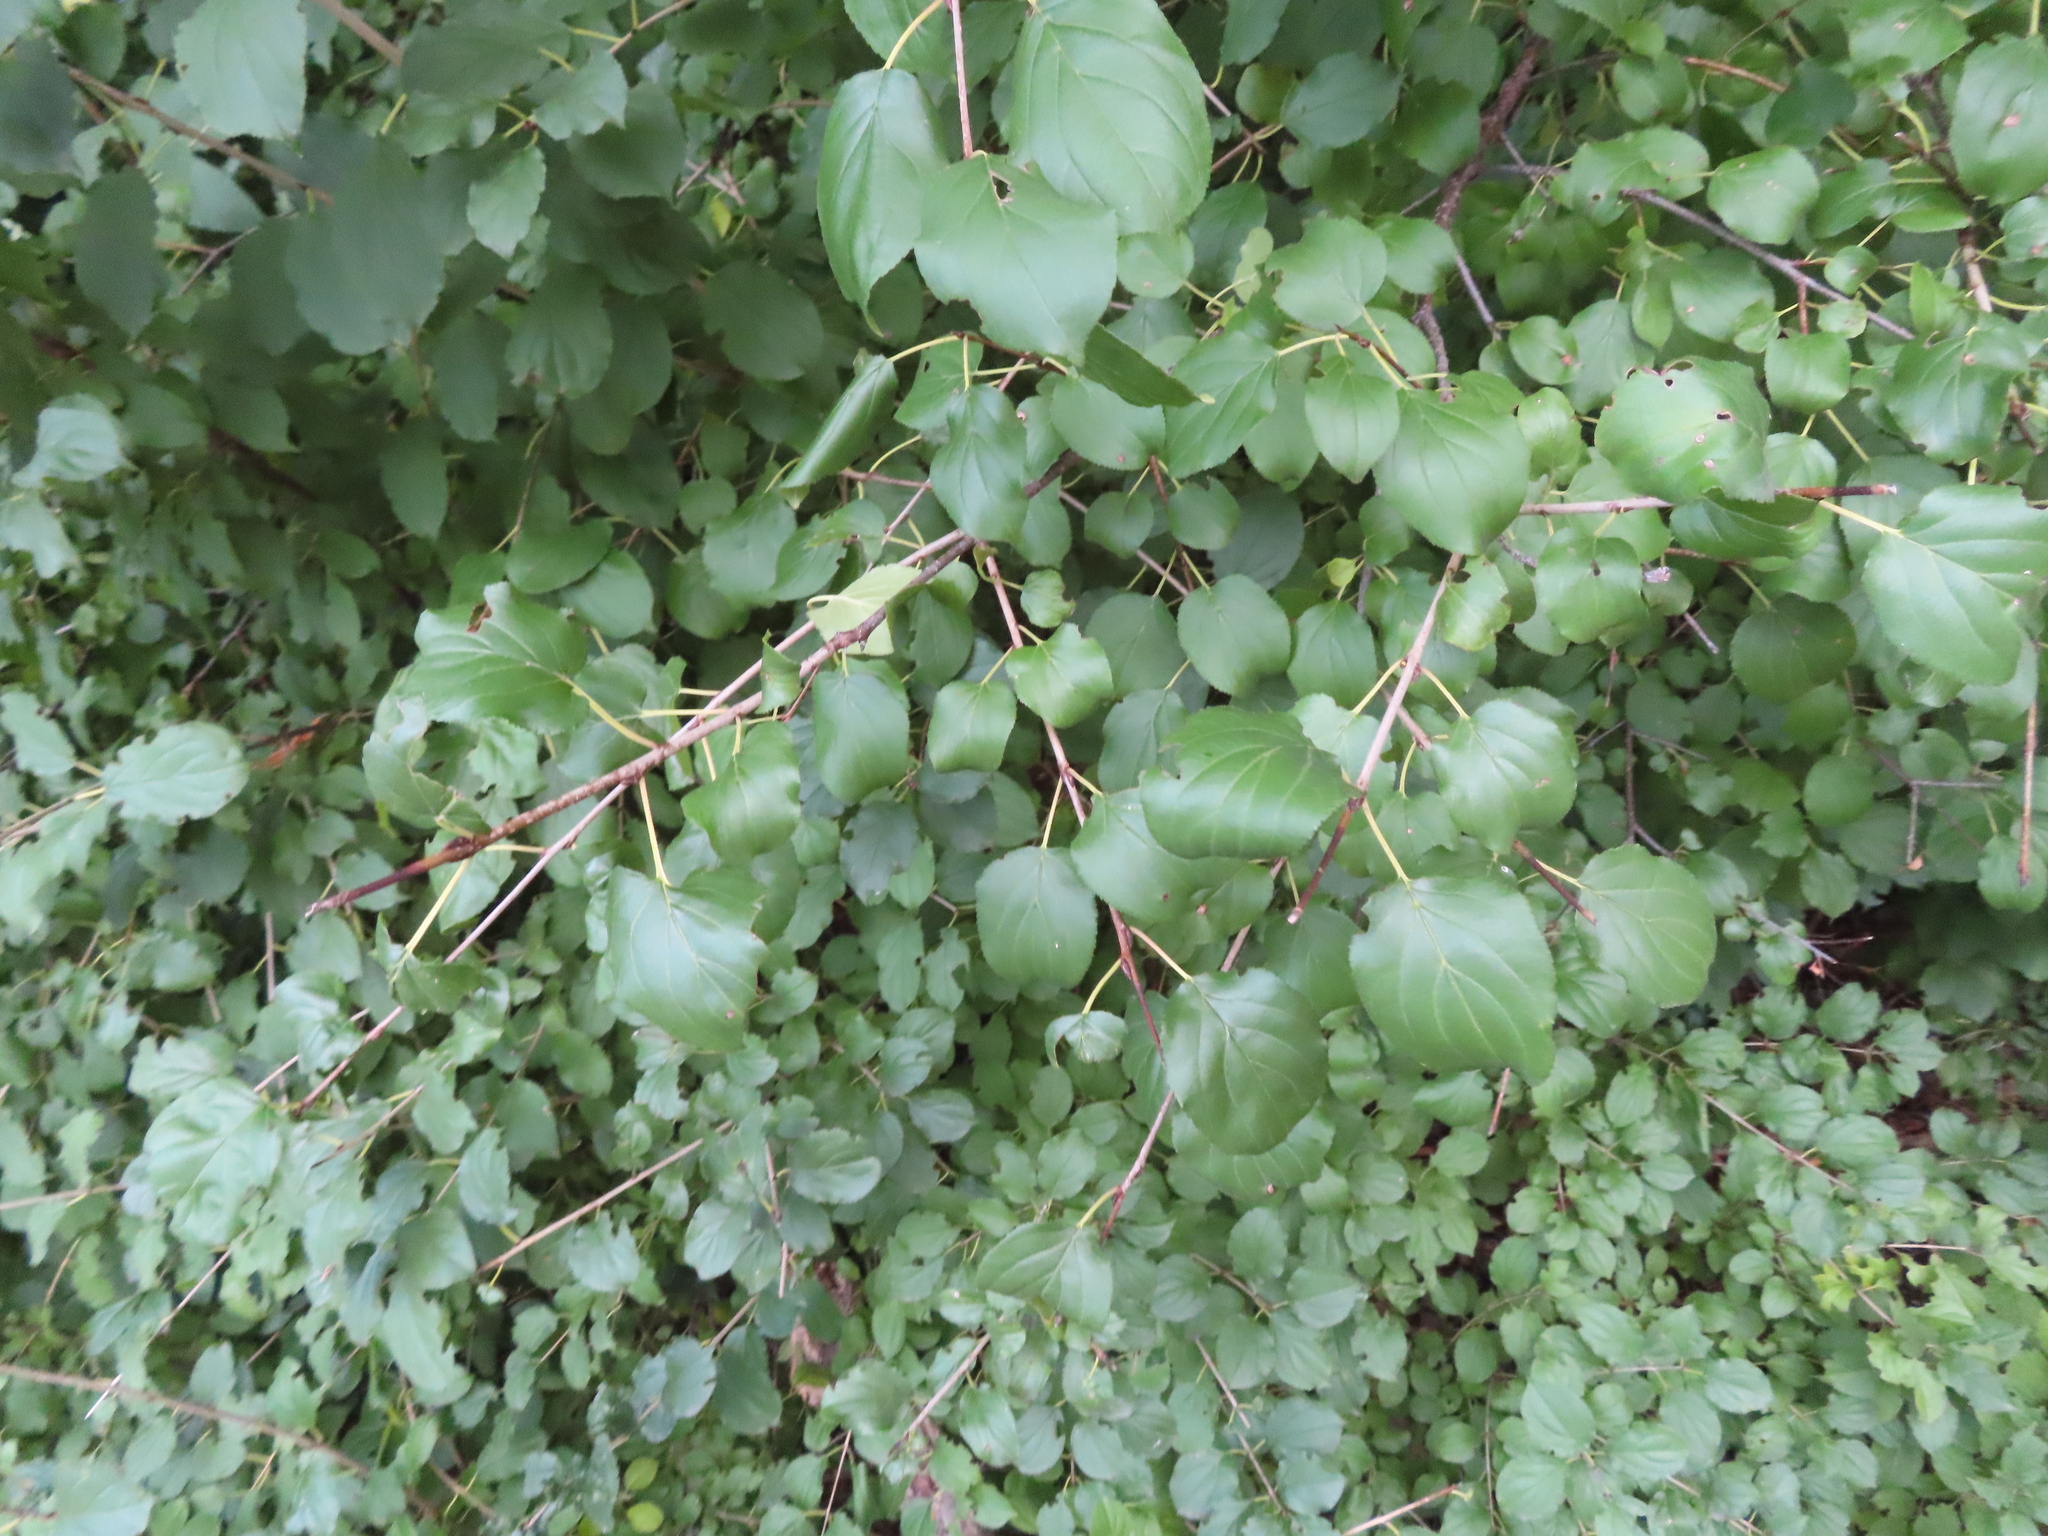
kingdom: Plantae
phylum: Tracheophyta
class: Magnoliopsida
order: Rosales
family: Rhamnaceae
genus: Rhamnus
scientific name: Rhamnus cathartica
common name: Common buckthorn
